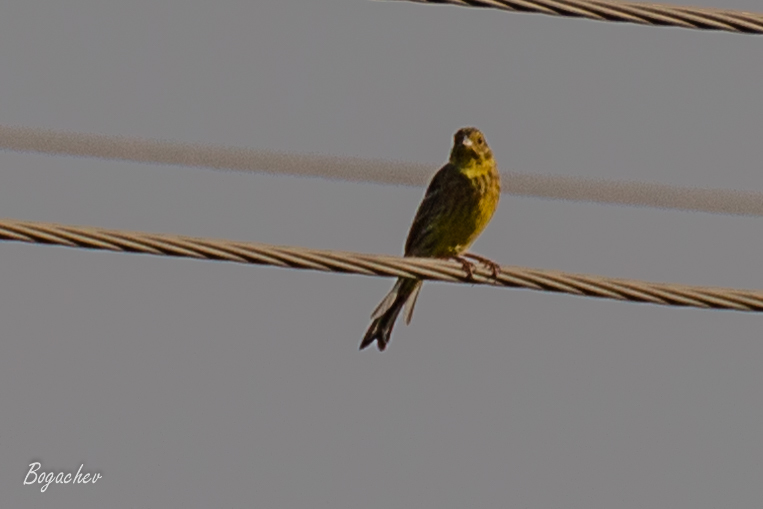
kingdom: Animalia
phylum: Chordata
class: Aves
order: Passeriformes
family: Emberizidae
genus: Emberiza
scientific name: Emberiza citrinella
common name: Yellowhammer
